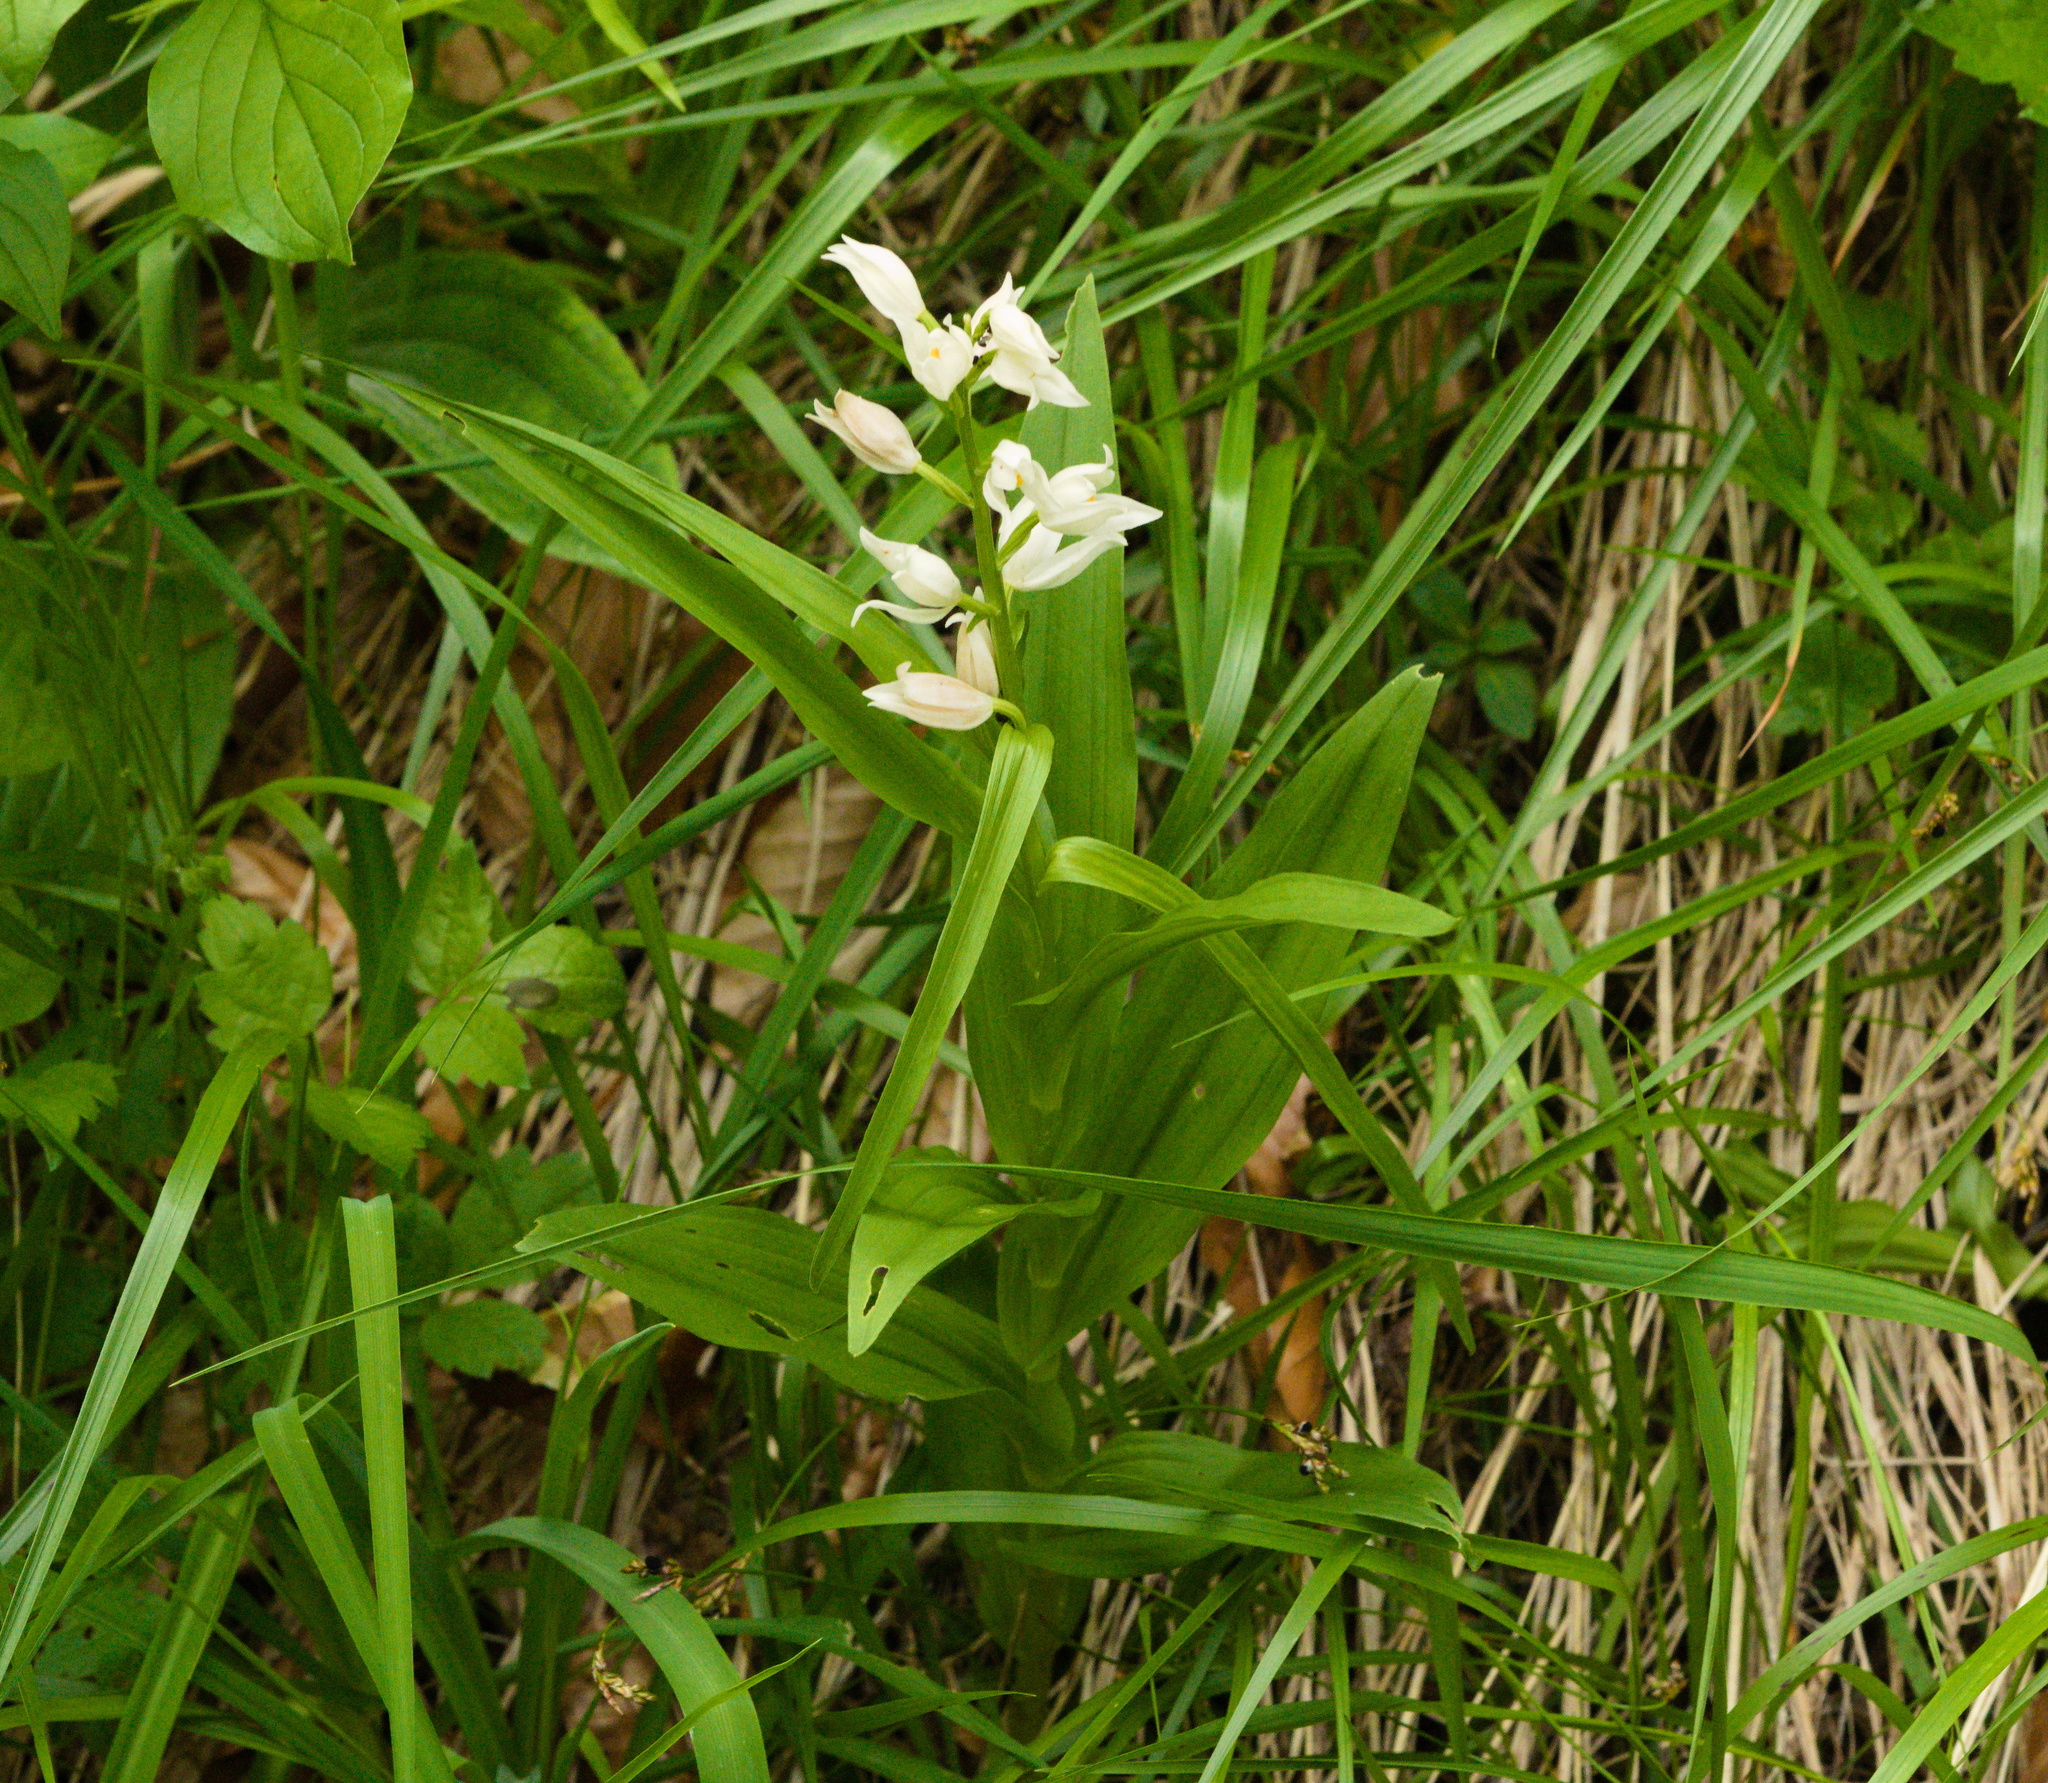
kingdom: Plantae
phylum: Tracheophyta
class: Liliopsida
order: Asparagales
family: Orchidaceae
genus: Cephalanthera
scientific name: Cephalanthera longifolia
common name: Narrow-leaved helleborine
